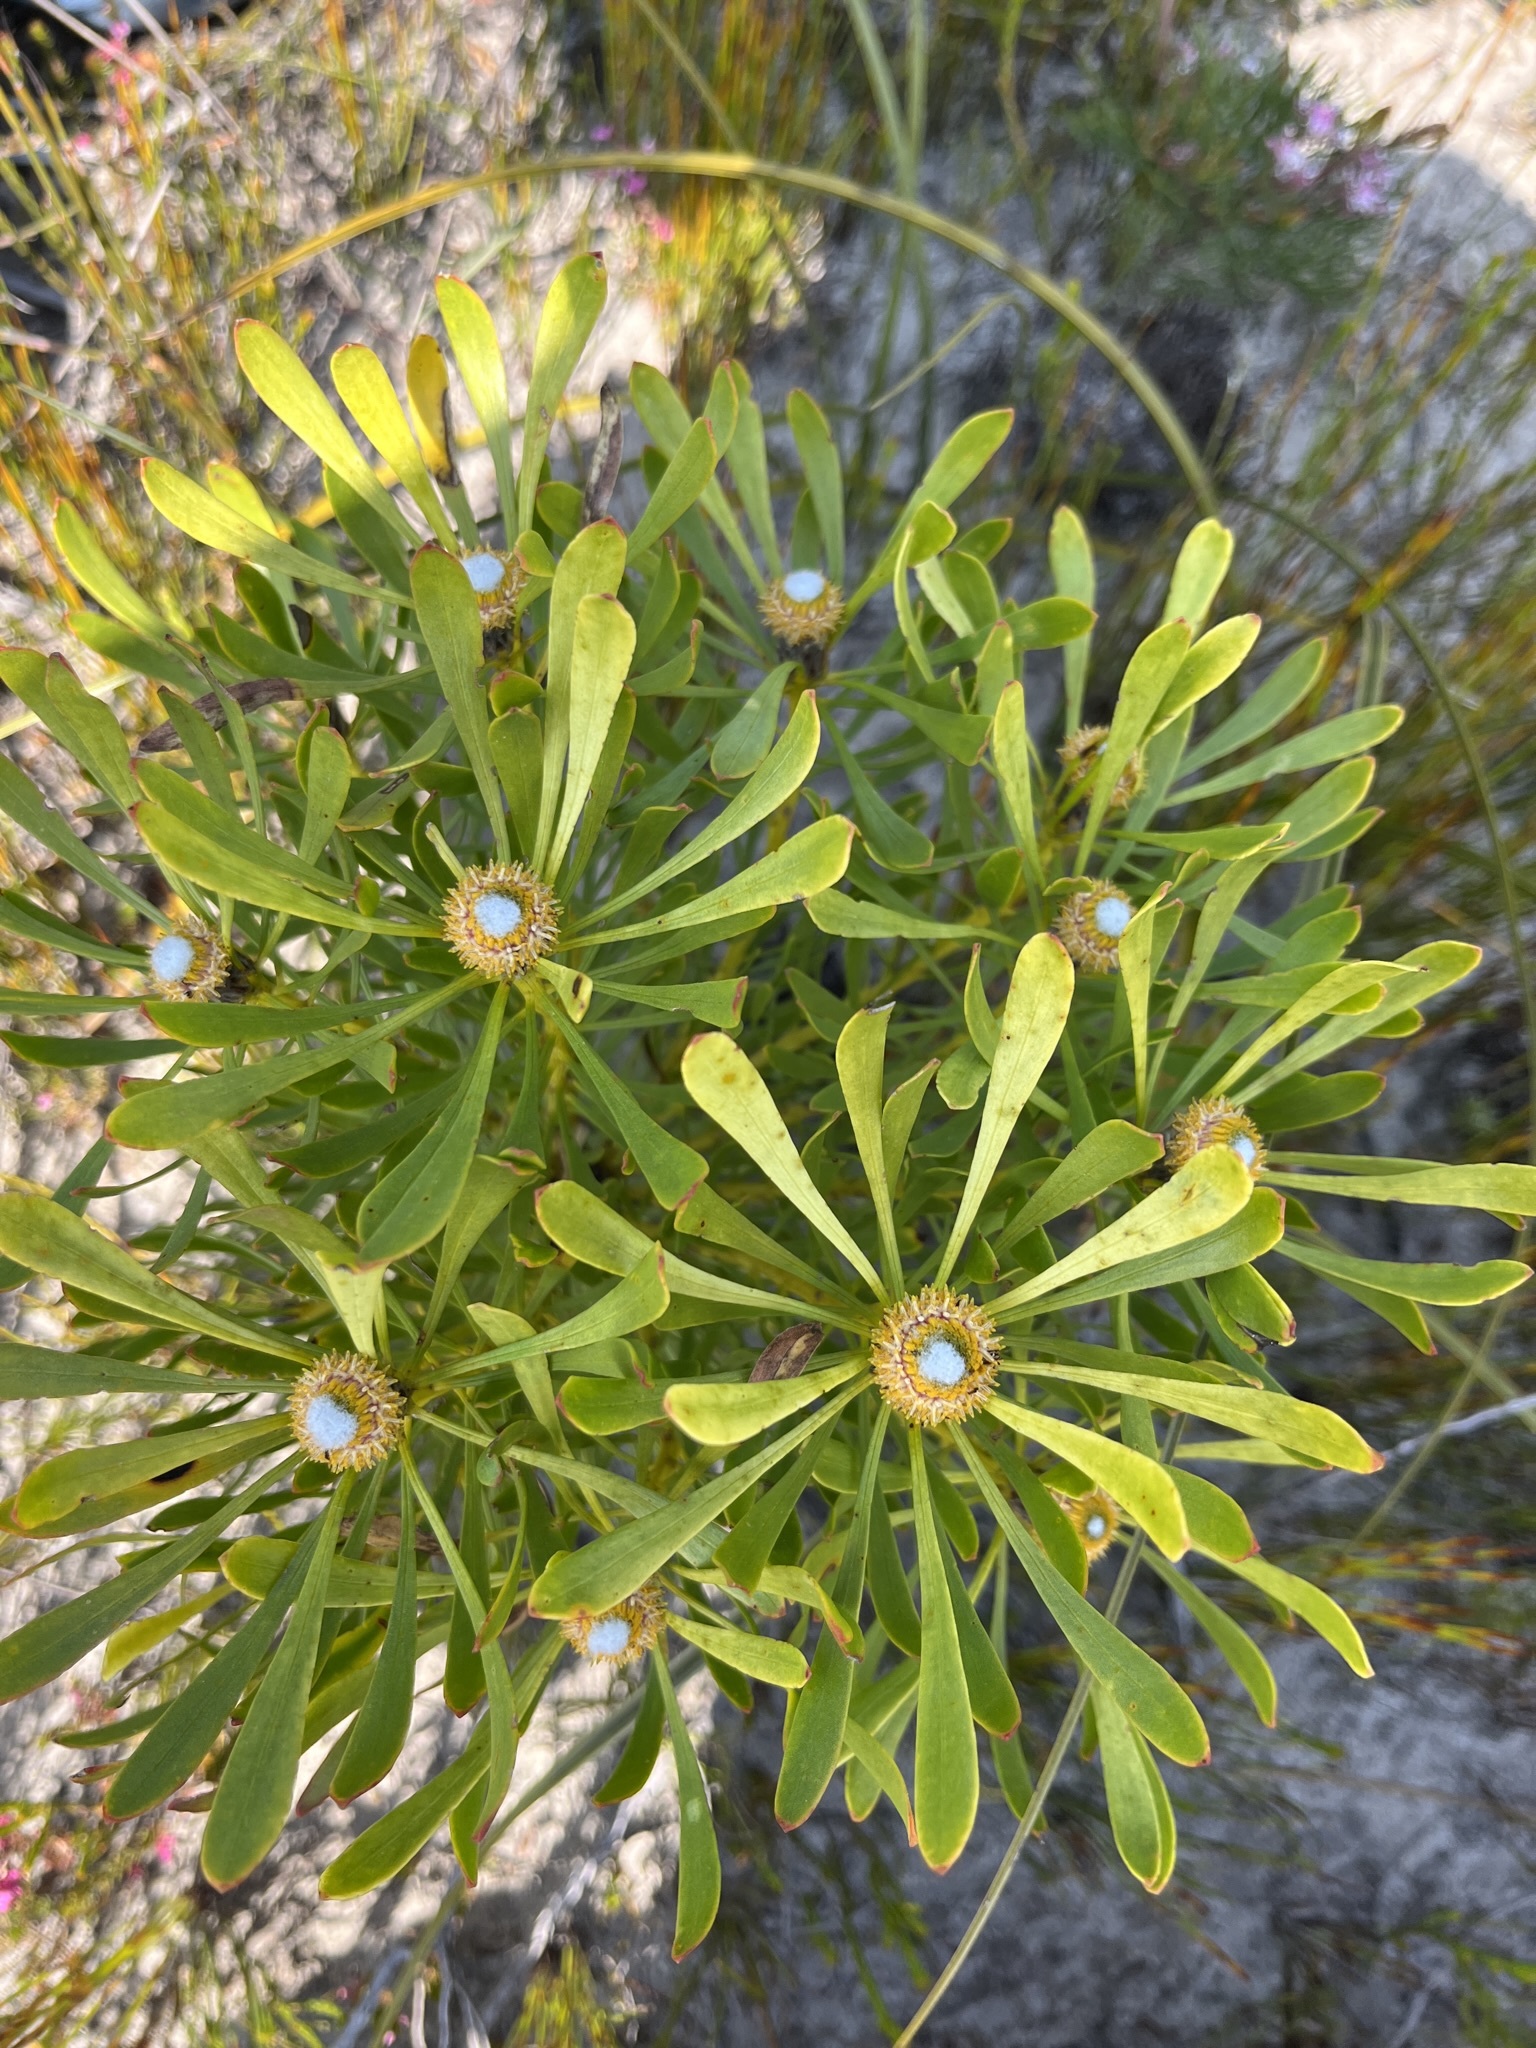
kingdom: Plantae
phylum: Tracheophyta
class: Magnoliopsida
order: Proteales
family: Proteaceae
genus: Leucadendron
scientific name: Leucadendron platyspermum
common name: Plate-seed conebush
